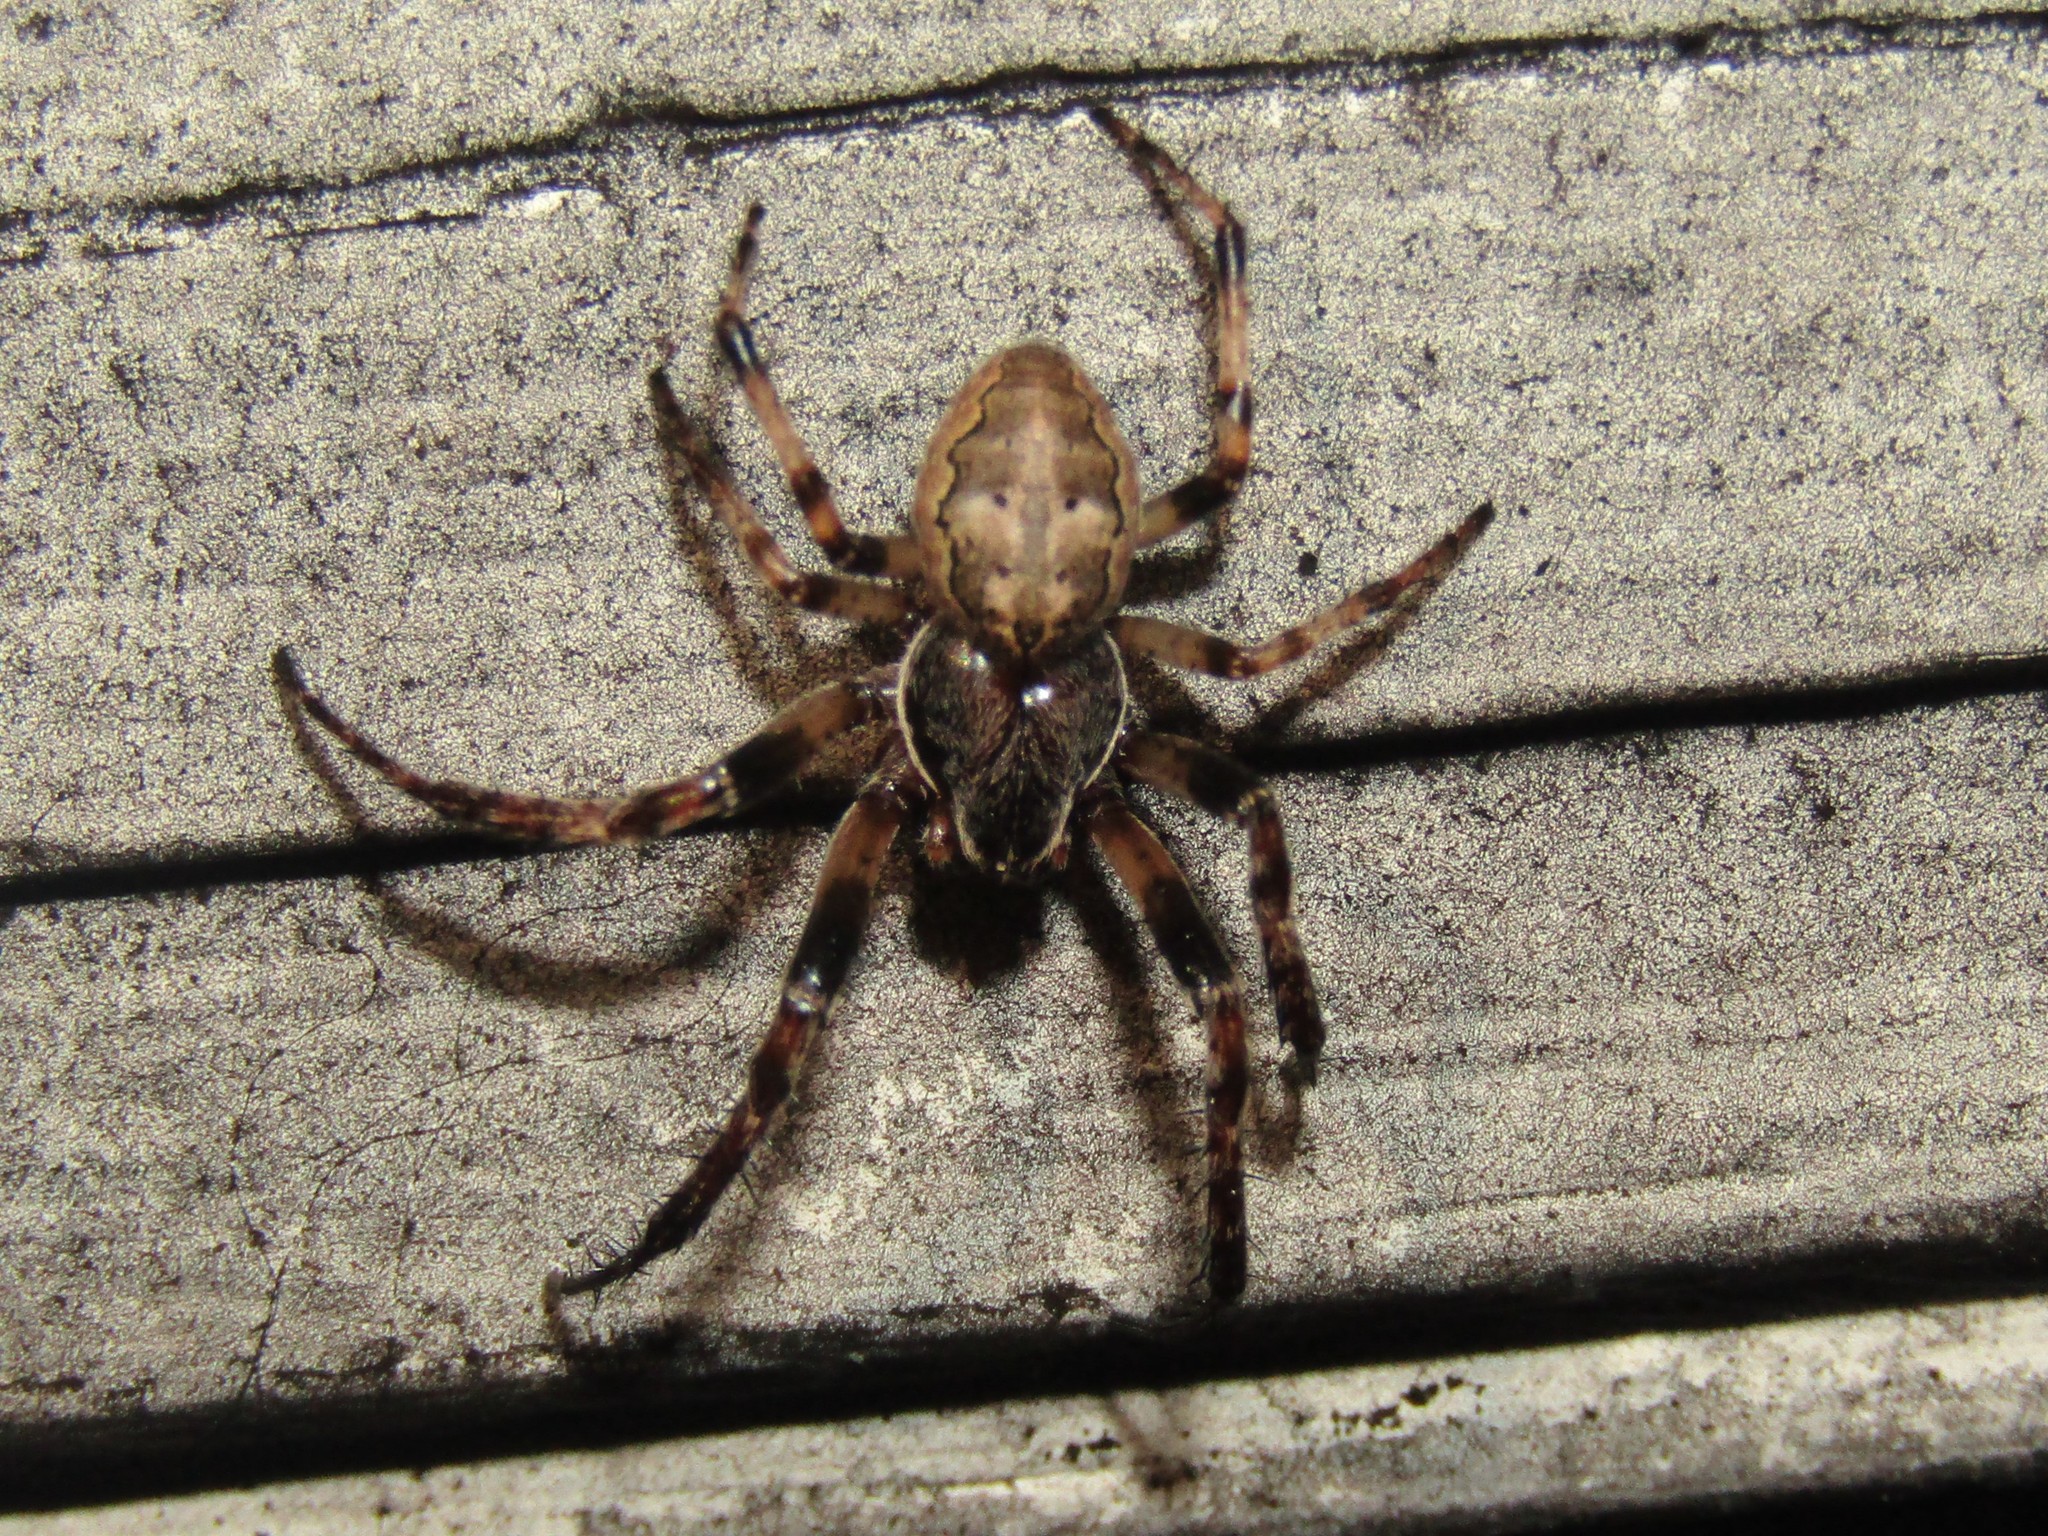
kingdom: Animalia
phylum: Arthropoda
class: Arachnida
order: Araneae
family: Araneidae
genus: Larinioides
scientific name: Larinioides cornutus
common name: Furrow orbweaver
